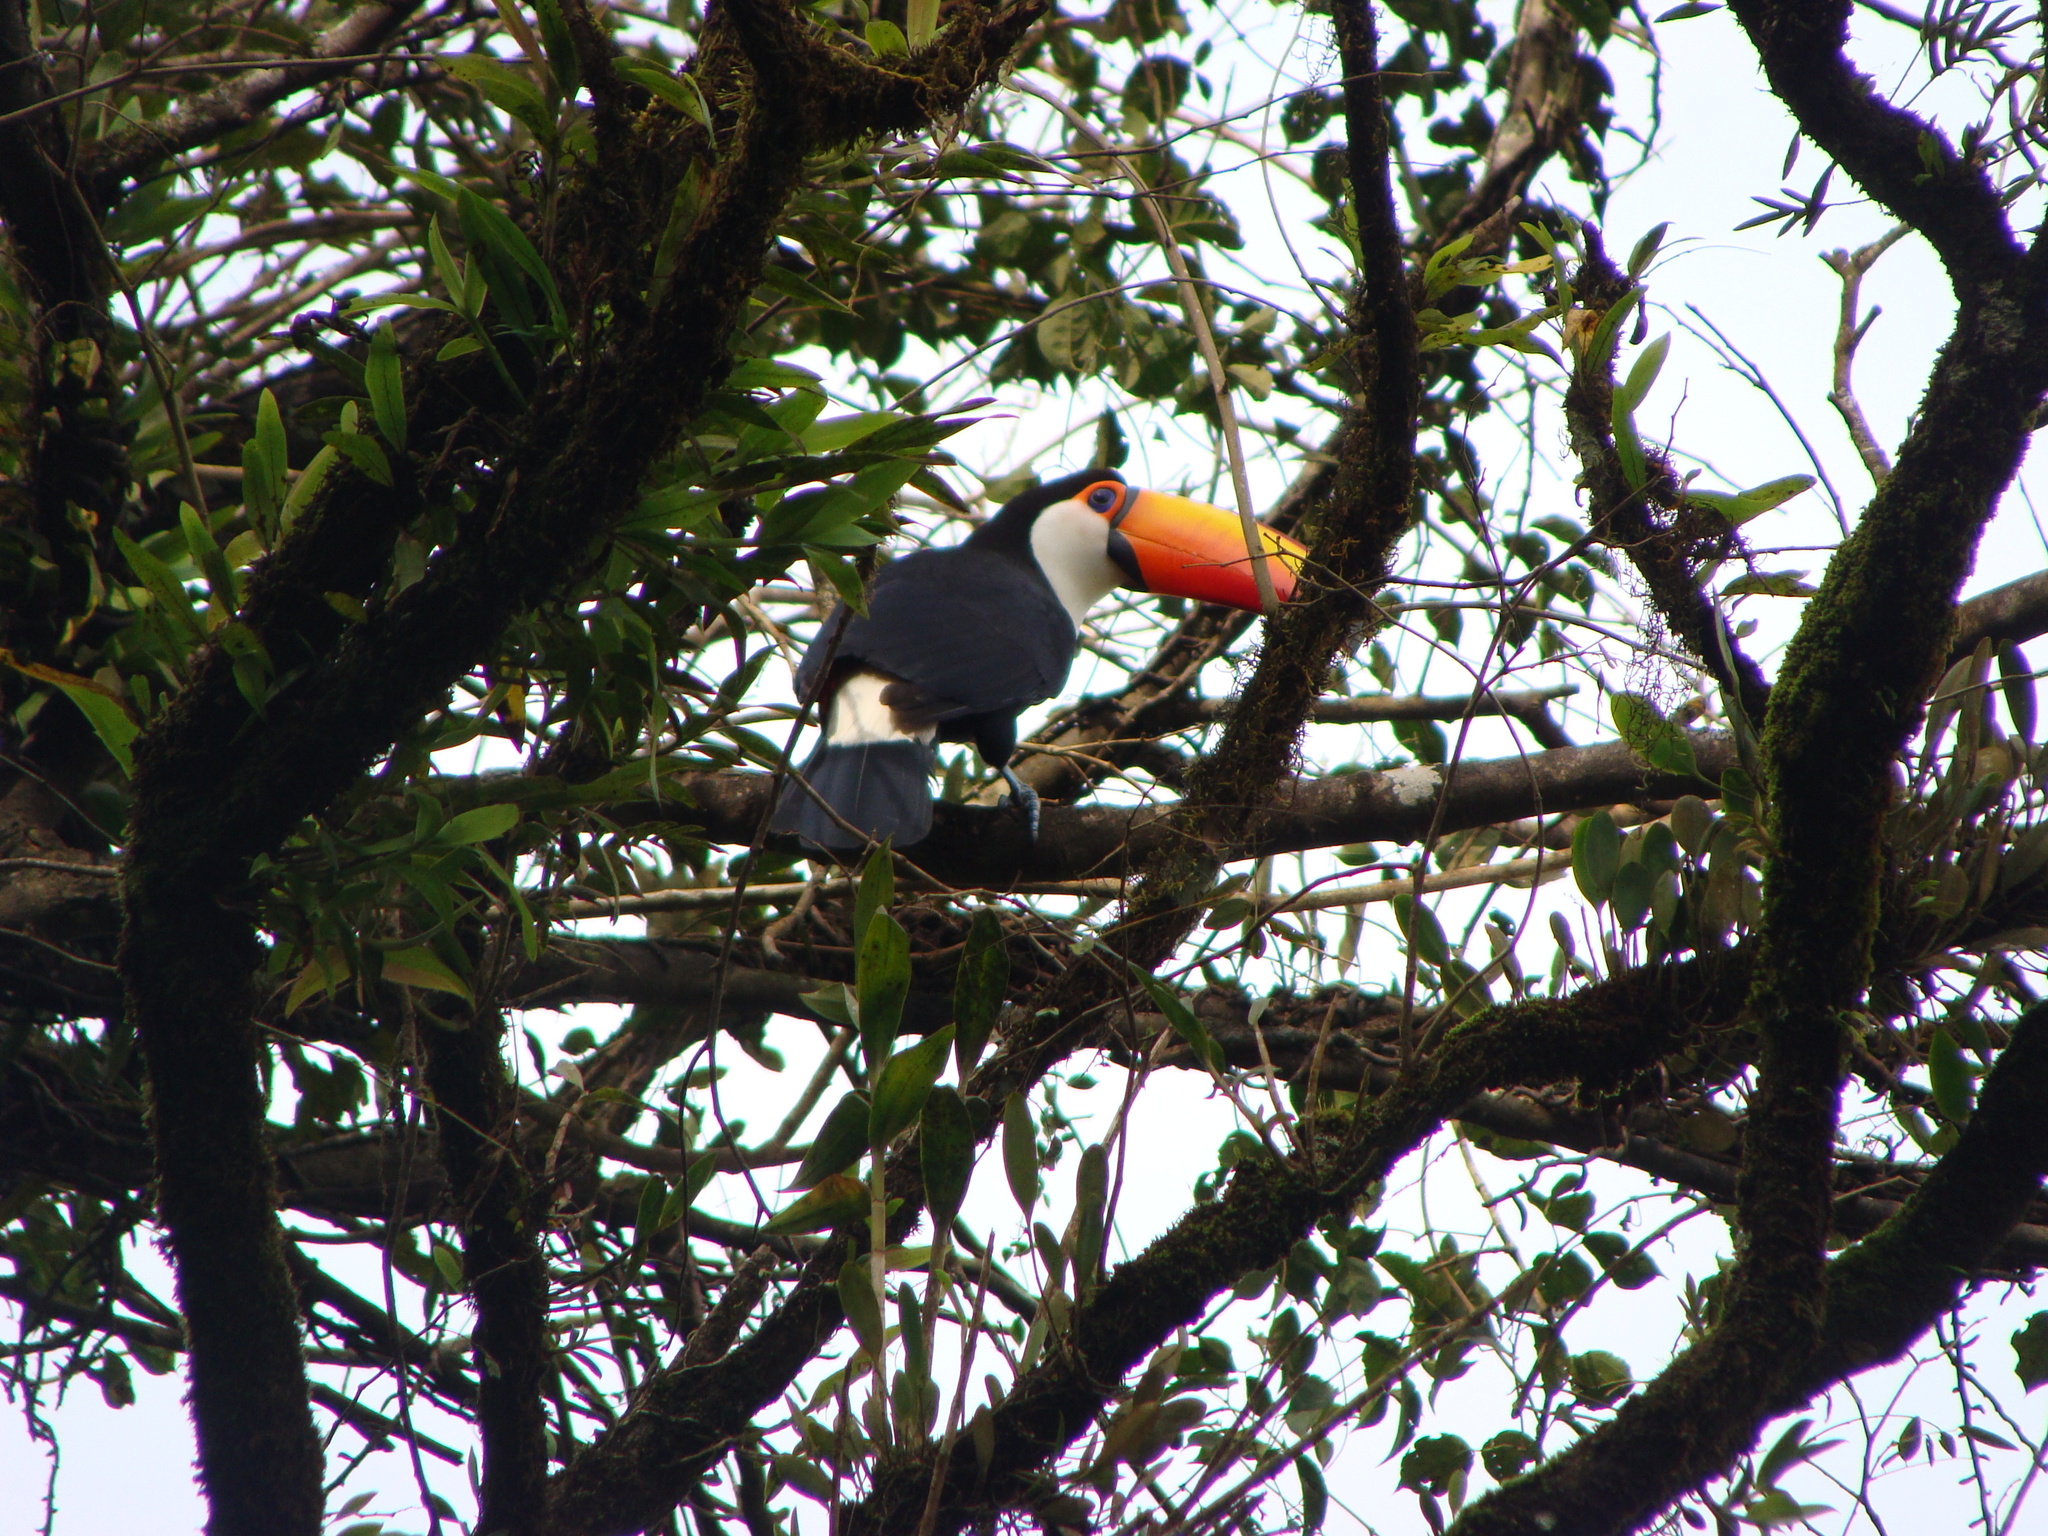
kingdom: Animalia
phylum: Chordata
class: Aves
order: Piciformes
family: Ramphastidae
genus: Ramphastos
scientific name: Ramphastos toco
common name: Toco toucan
